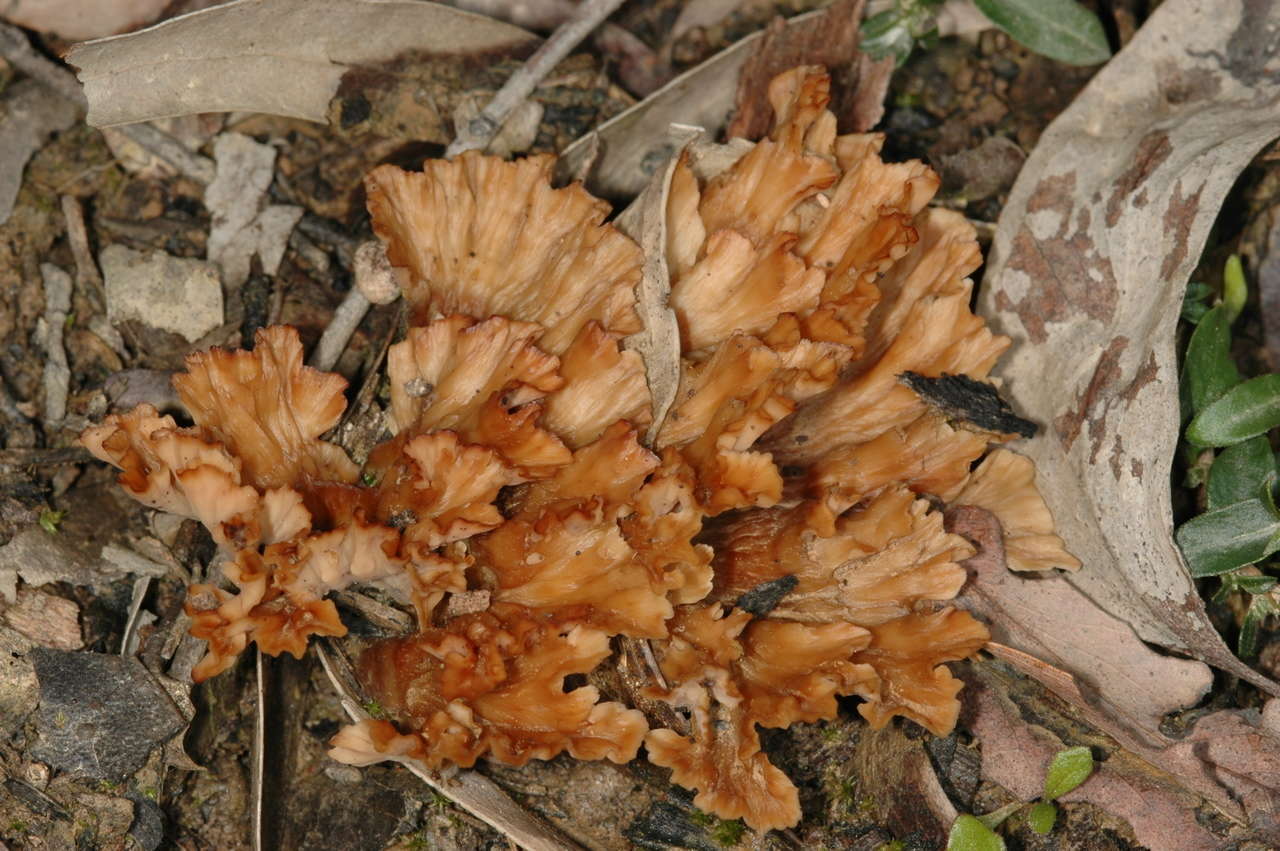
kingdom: Fungi
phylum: Basidiomycota
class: Agaricomycetes
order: Polyporales
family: Podoscyphaceae
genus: Podoscypha
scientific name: Podoscypha petalodes
